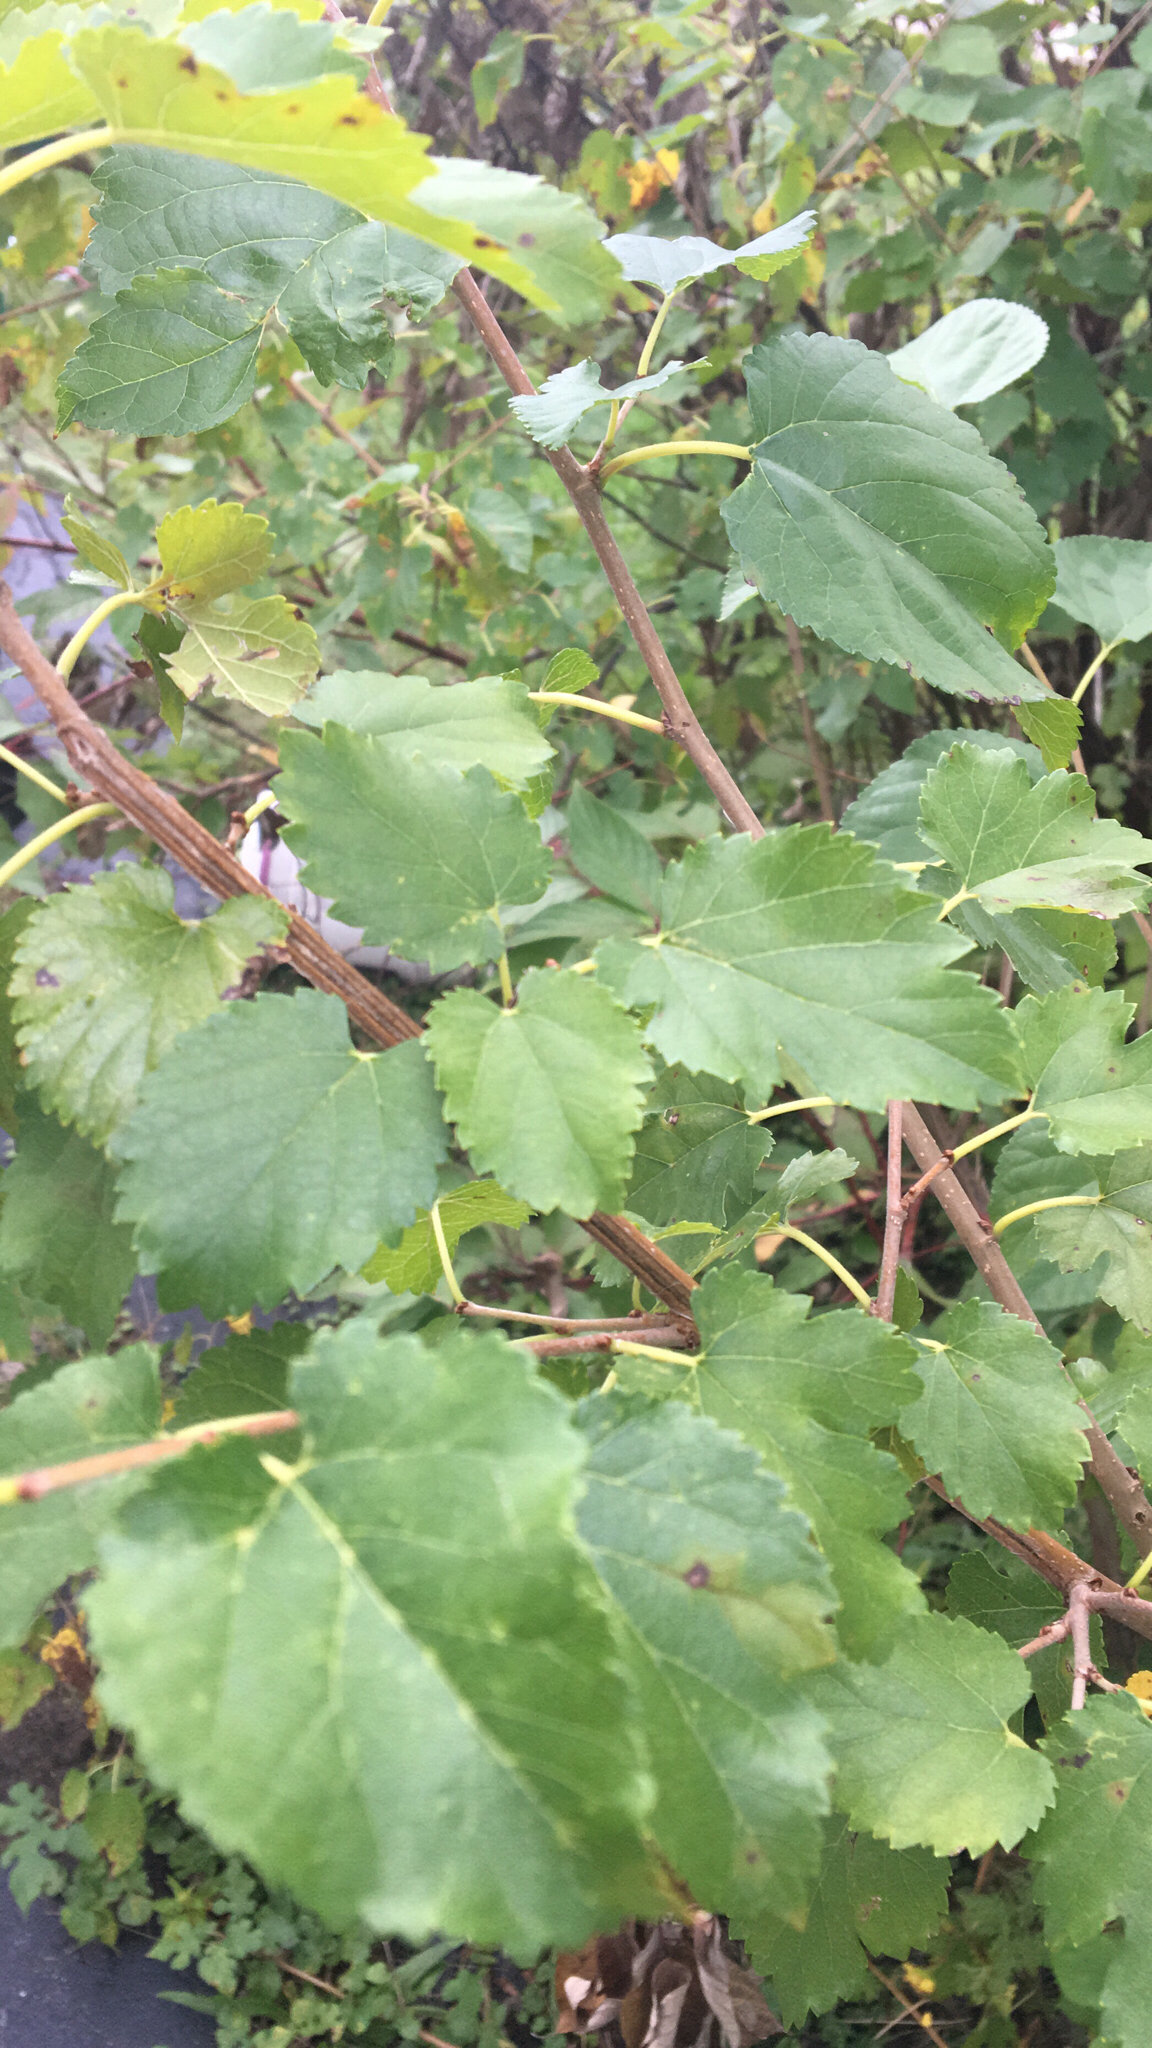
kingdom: Plantae
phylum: Tracheophyta
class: Magnoliopsida
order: Rosales
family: Moraceae
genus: Morus
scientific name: Morus alba
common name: White mulberry
